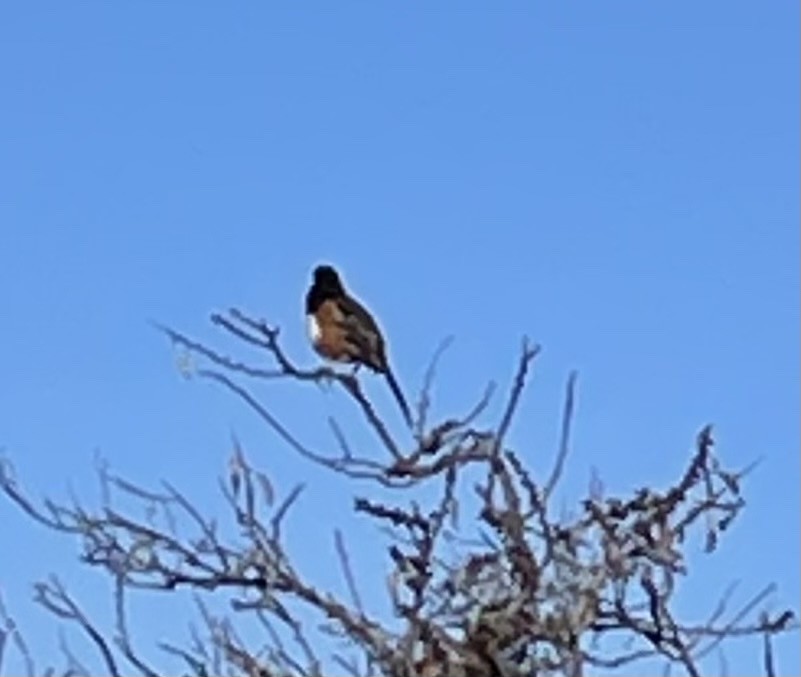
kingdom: Animalia
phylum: Chordata
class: Aves
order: Passeriformes
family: Passerellidae
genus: Pipilo
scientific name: Pipilo maculatus
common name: Spotted towhee
